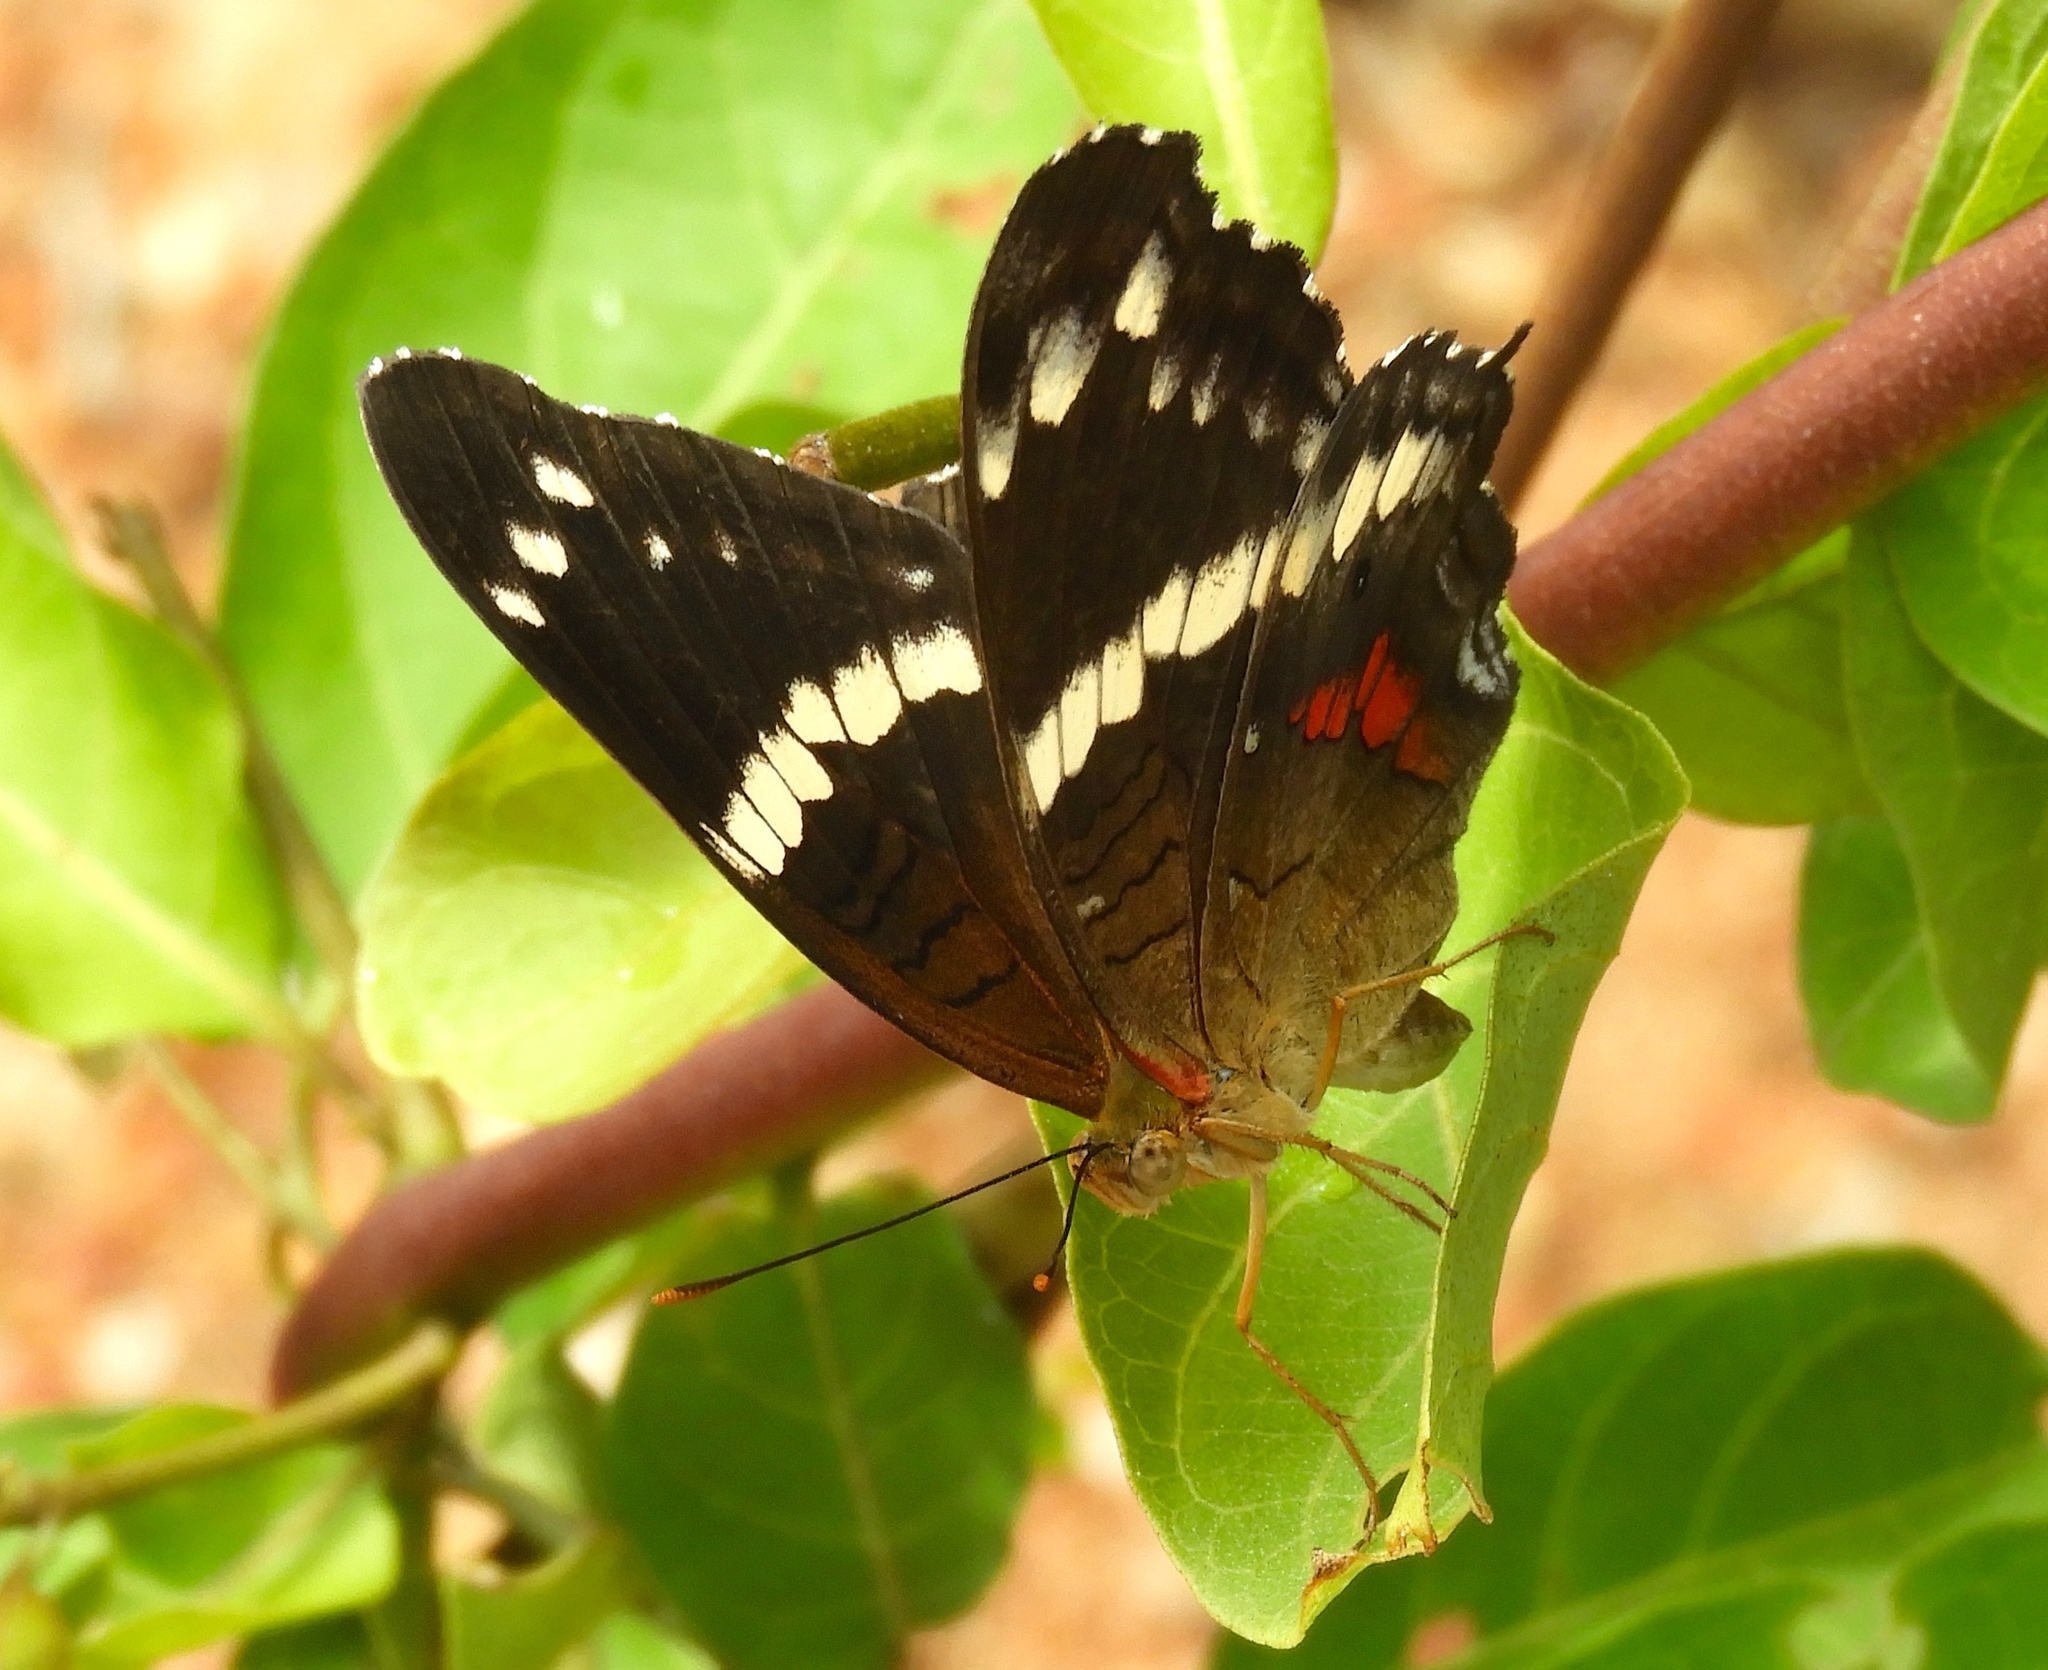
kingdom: Animalia
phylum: Arthropoda
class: Insecta
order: Lepidoptera
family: Nymphalidae
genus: Anartia
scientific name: Anartia fatima
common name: Banded peacock
